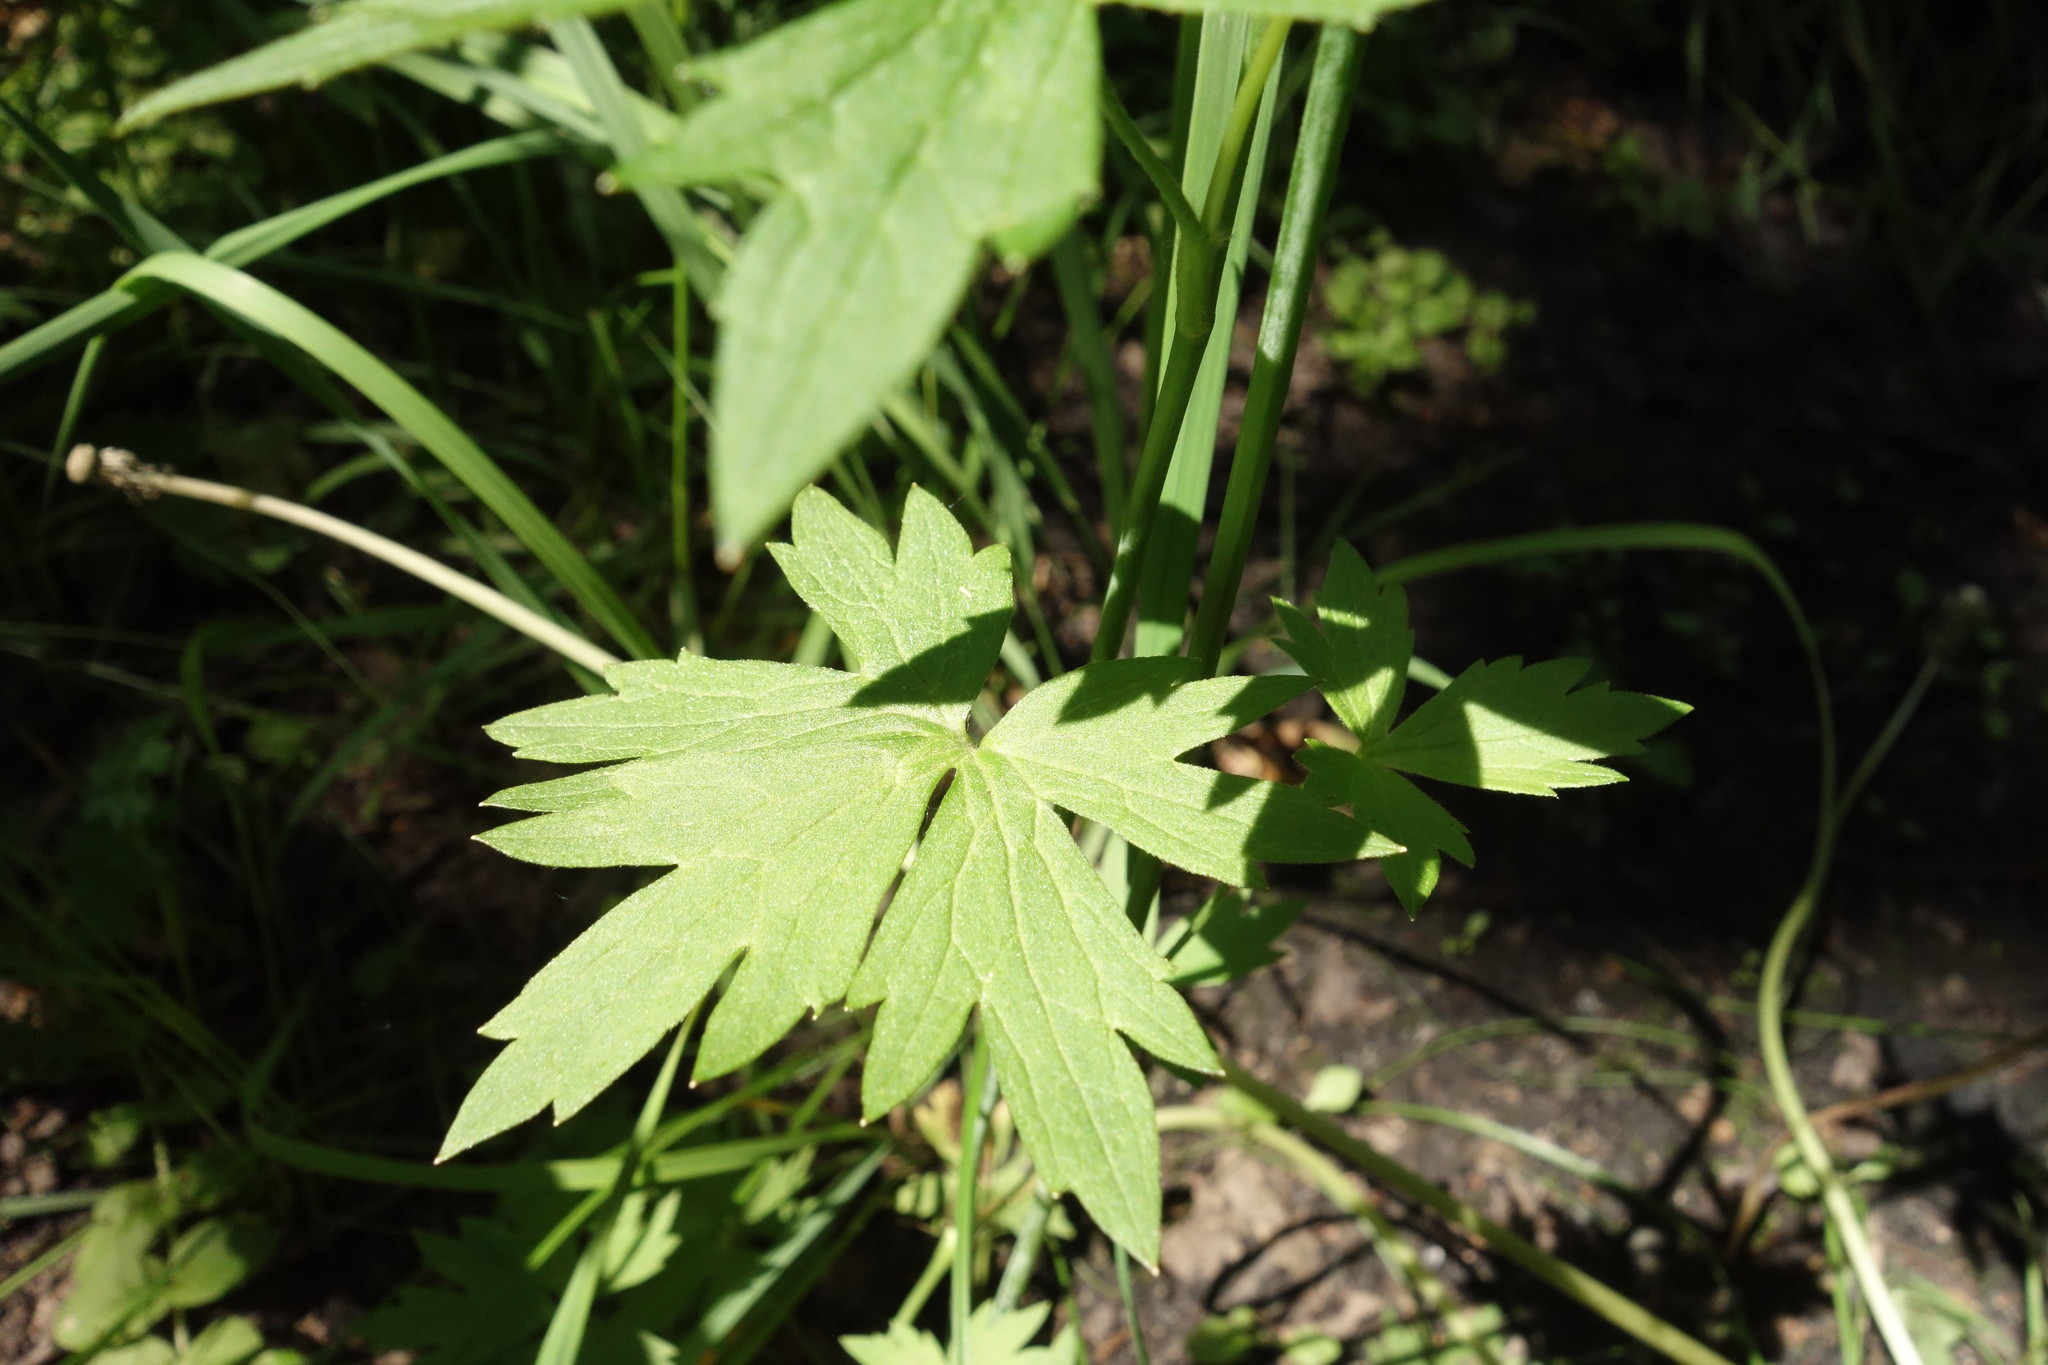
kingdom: Plantae
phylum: Tracheophyta
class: Magnoliopsida
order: Ranunculales
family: Ranunculaceae
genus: Ranunculus
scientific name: Ranunculus acris
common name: Meadow buttercup
